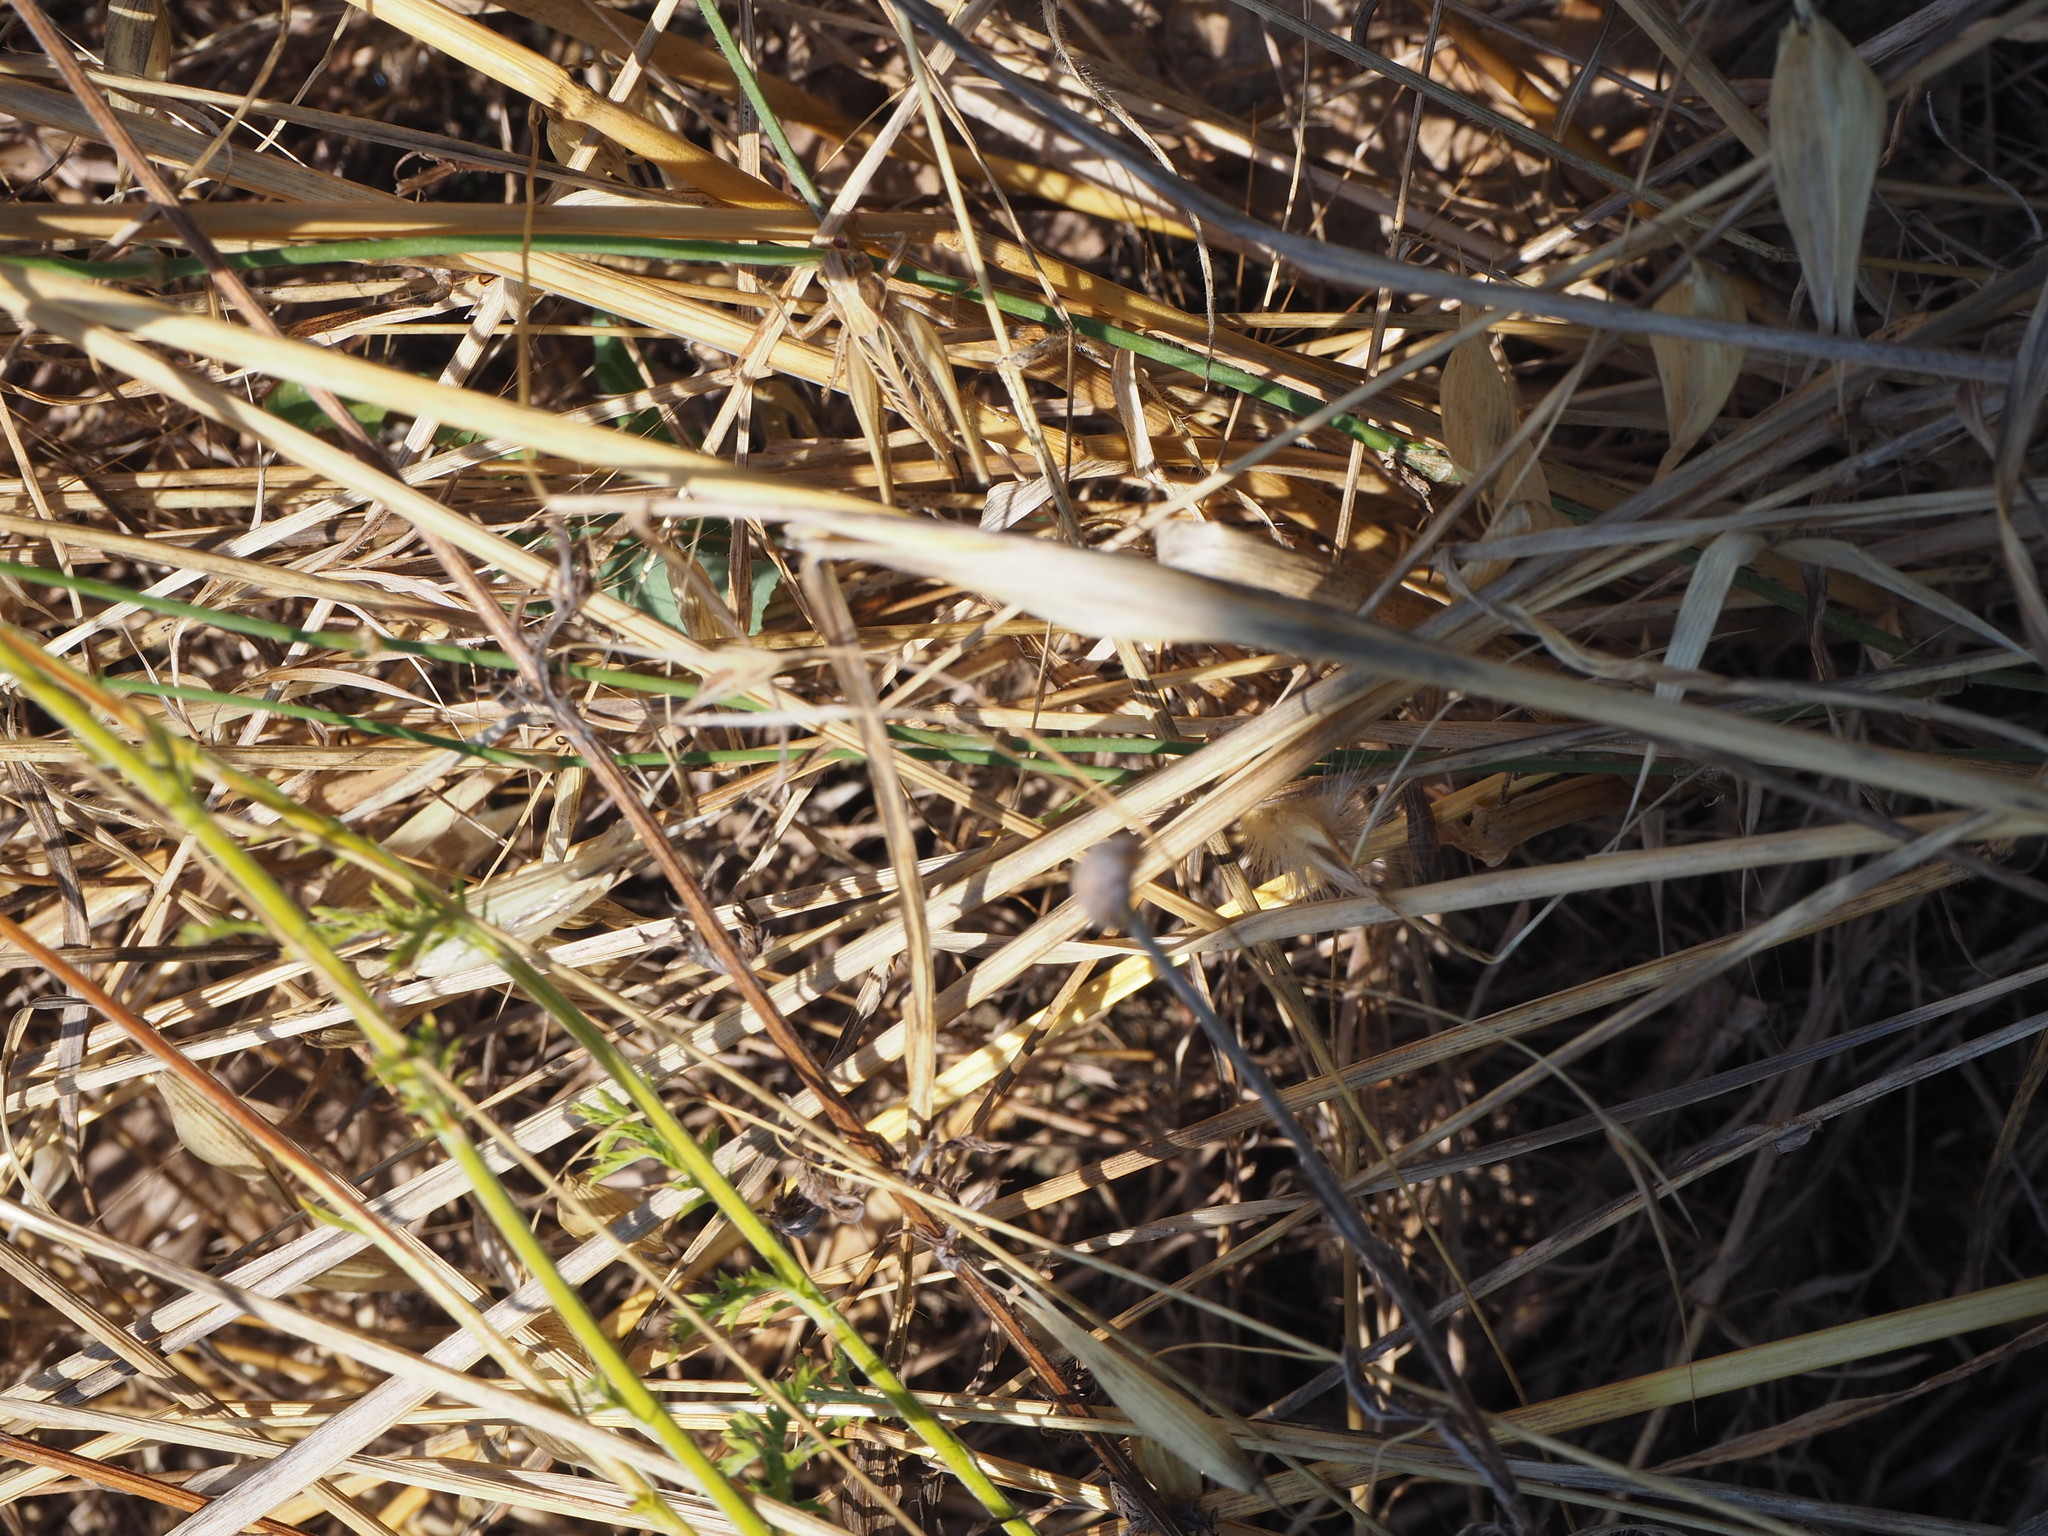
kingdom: Animalia
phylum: Arthropoda
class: Insecta
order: Orthoptera
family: Tettigoniidae
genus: Tessellana
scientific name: Tessellana tessellata
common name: Grasshopper
